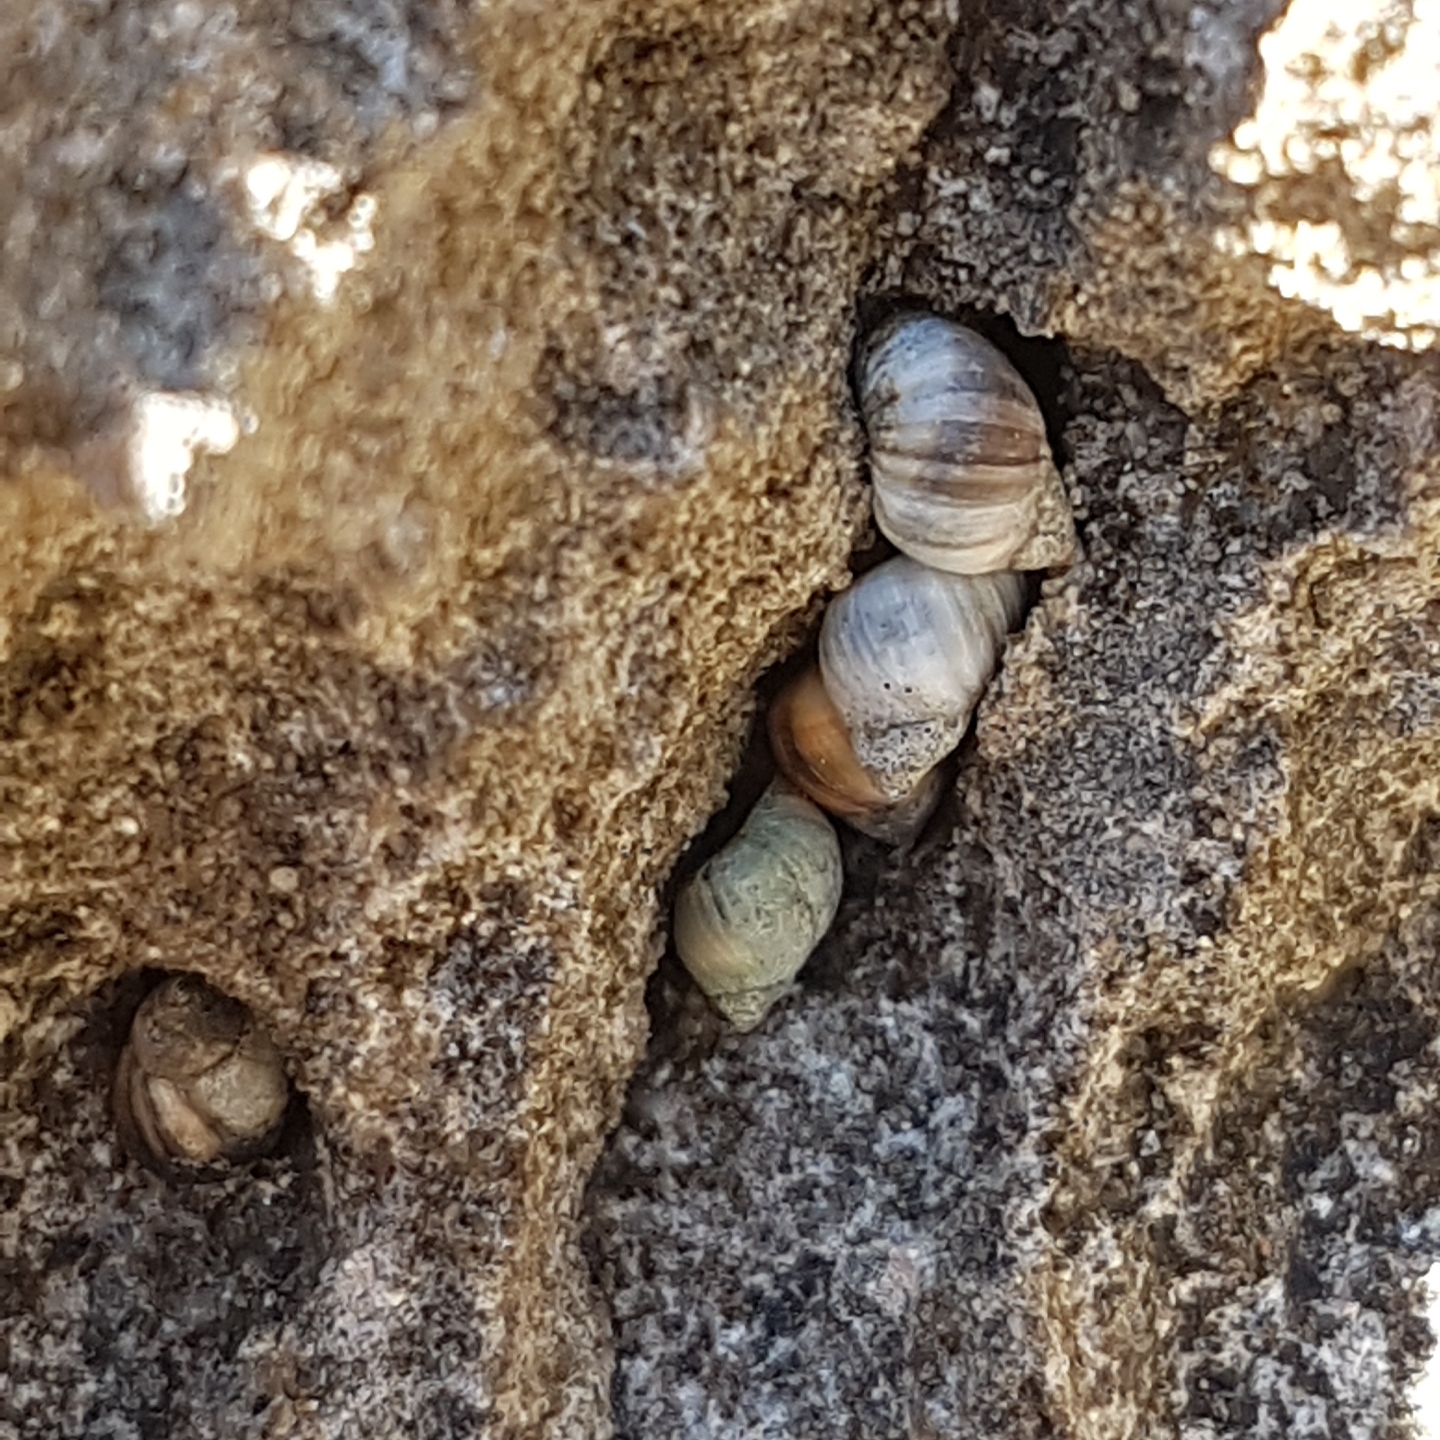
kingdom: Animalia
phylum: Mollusca
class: Gastropoda
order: Littorinimorpha
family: Littorinidae
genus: Melarhaphe
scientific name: Melarhaphe neritoides
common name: Small periwinkle
